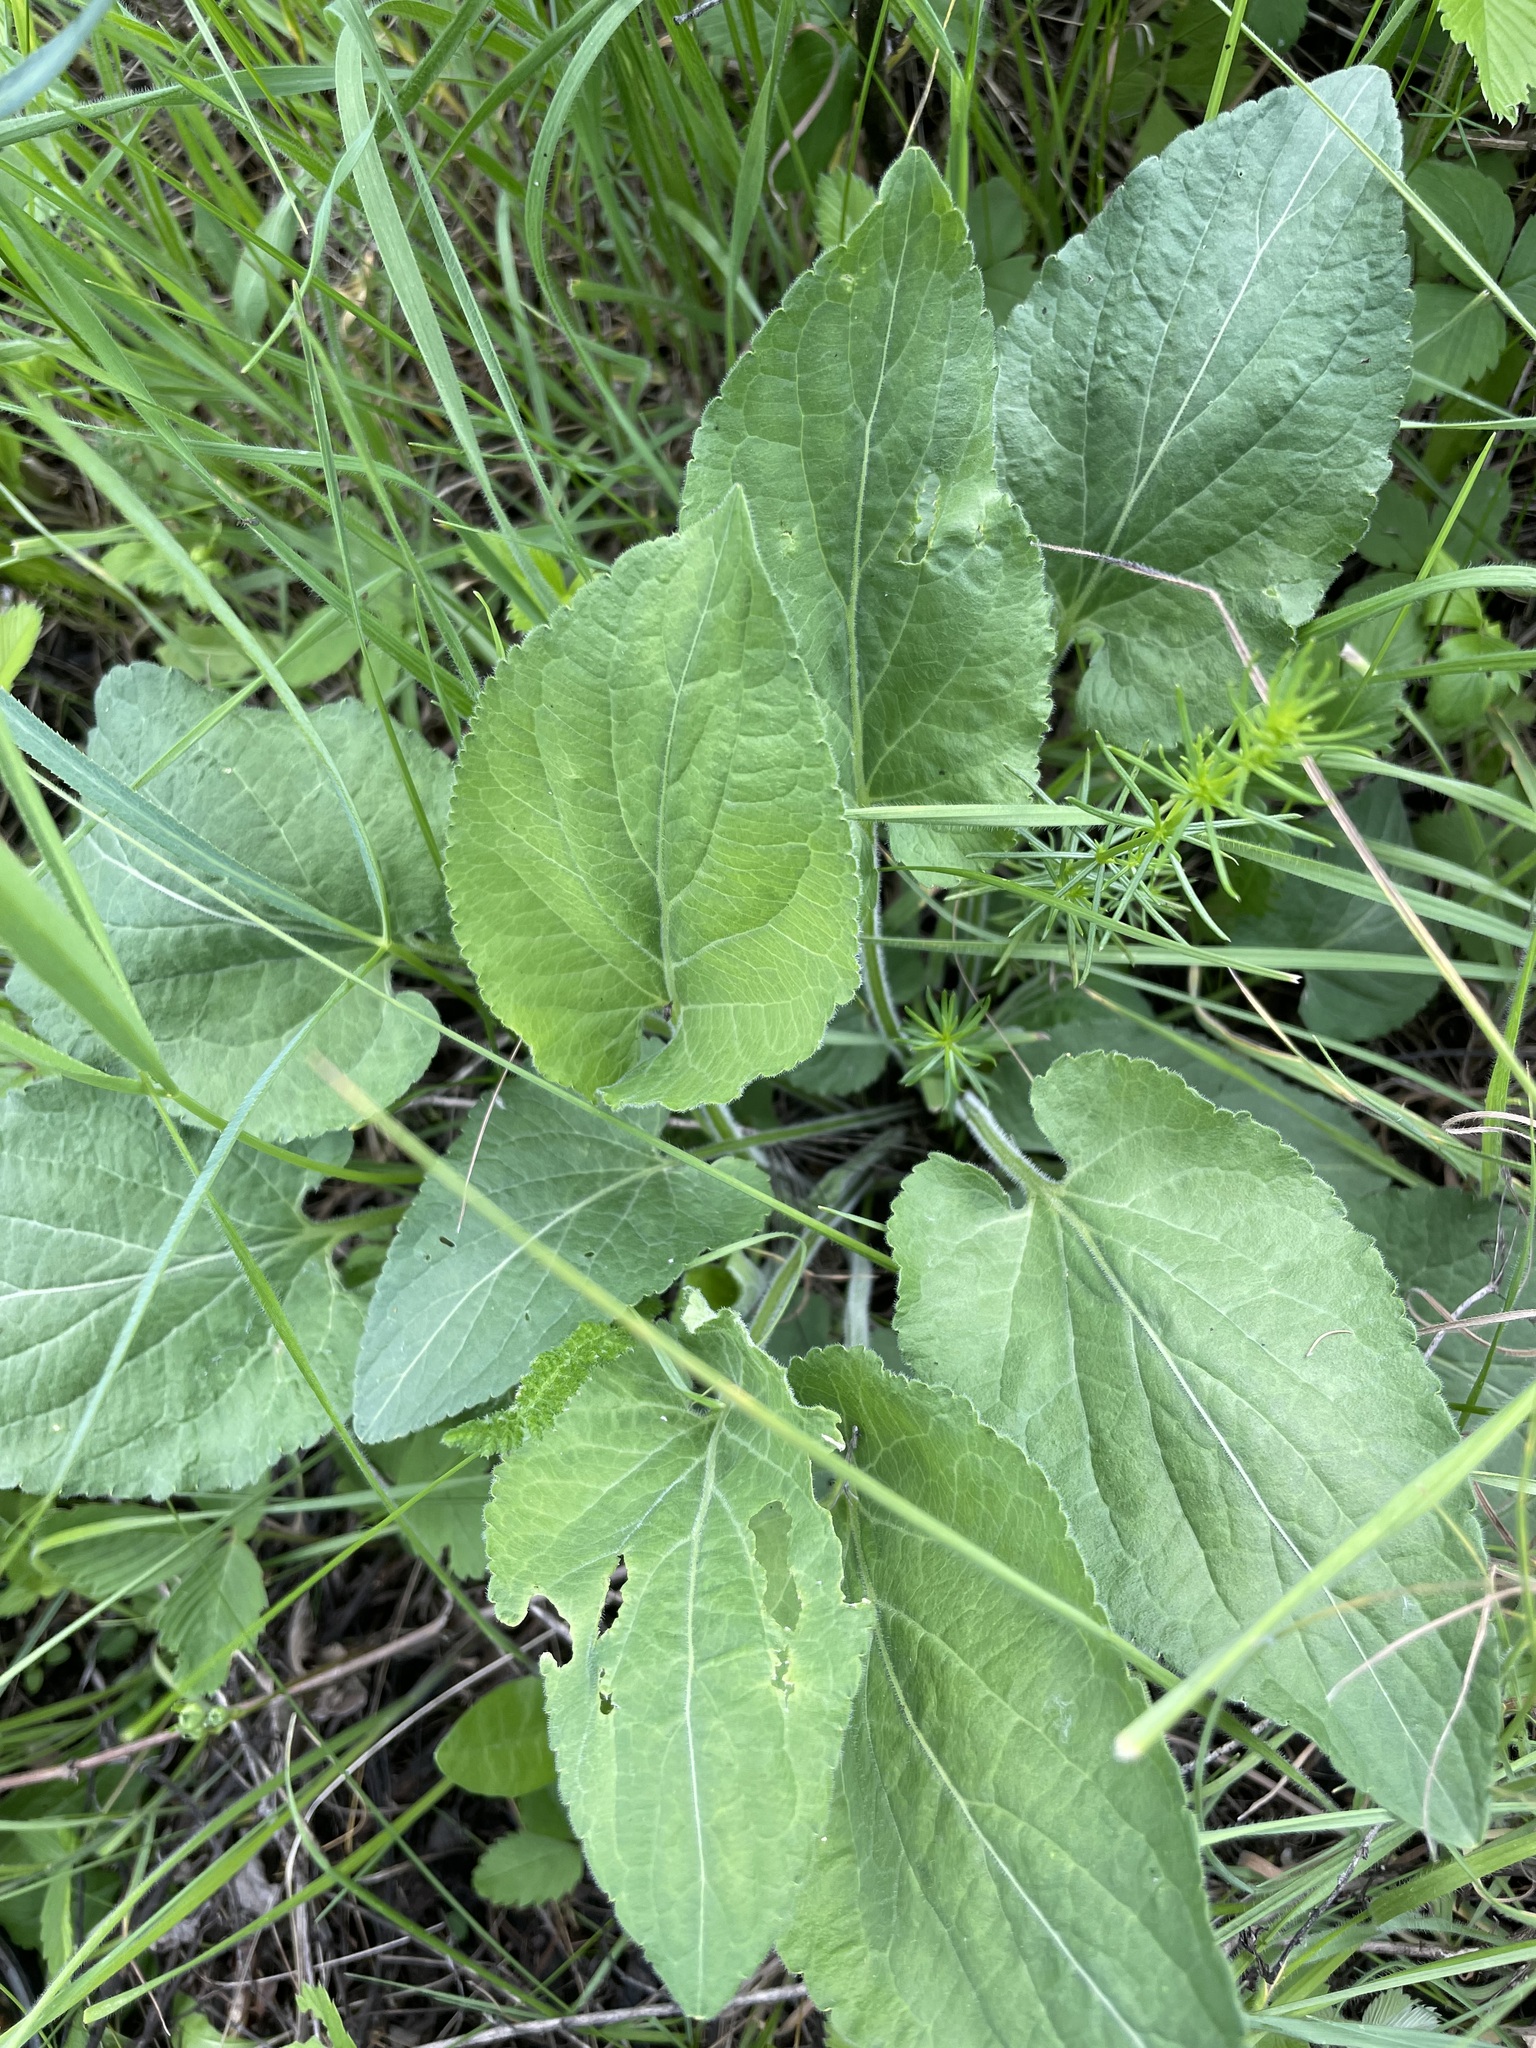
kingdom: Plantae
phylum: Tracheophyta
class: Magnoliopsida
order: Malpighiales
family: Violaceae
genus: Viola
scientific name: Viola hirta
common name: Hairy violet
